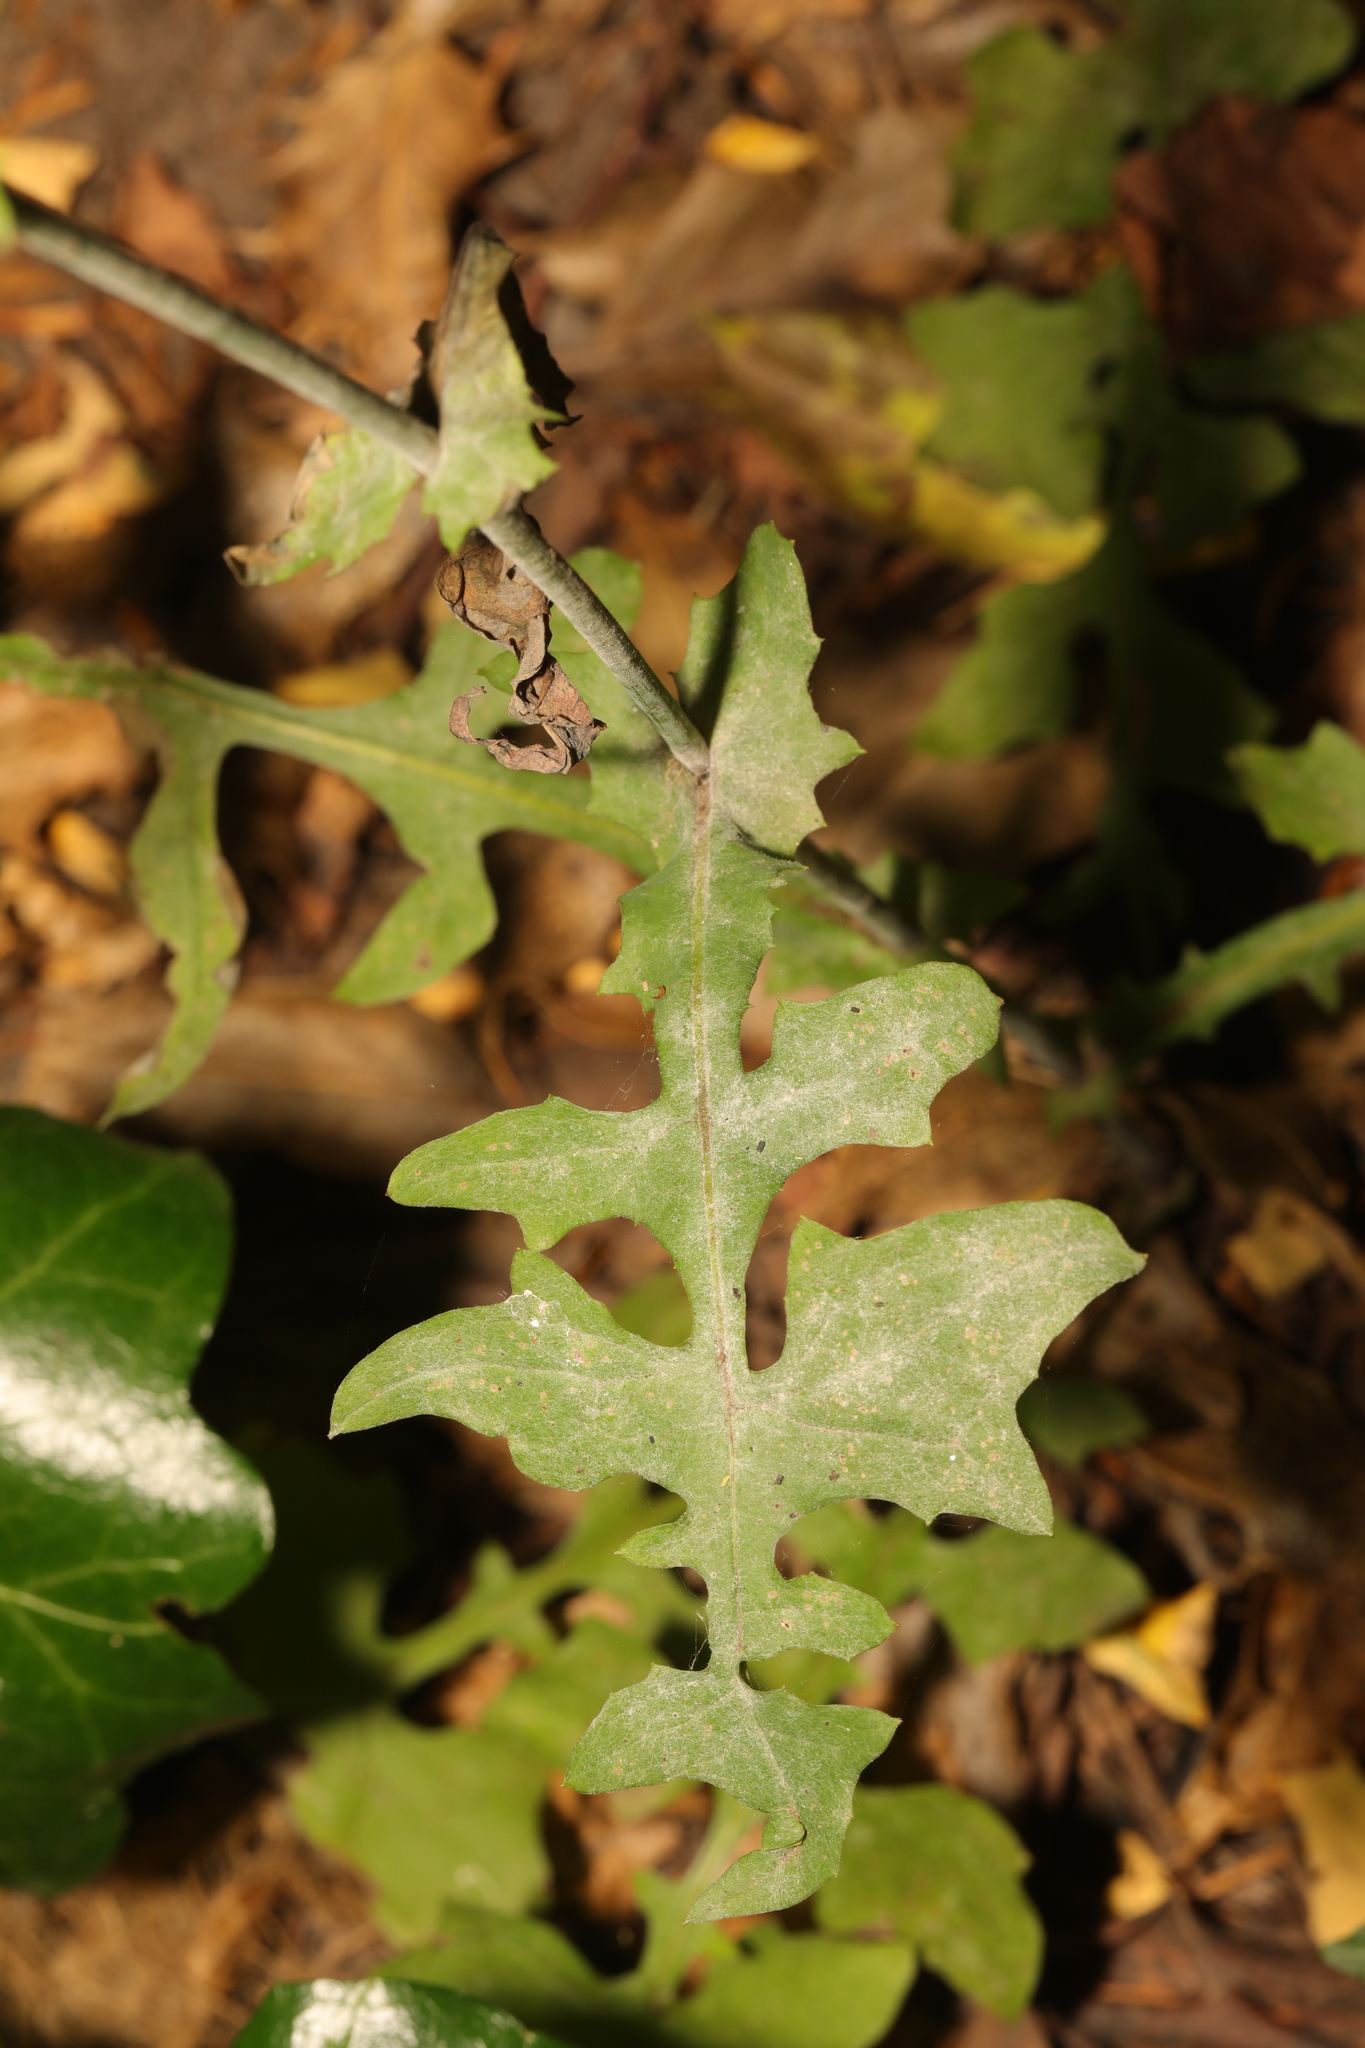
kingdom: Plantae
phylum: Tracheophyta
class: Magnoliopsida
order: Asterales
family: Asteraceae
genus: Mycelis
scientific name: Mycelis muralis
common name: Wall lettuce
